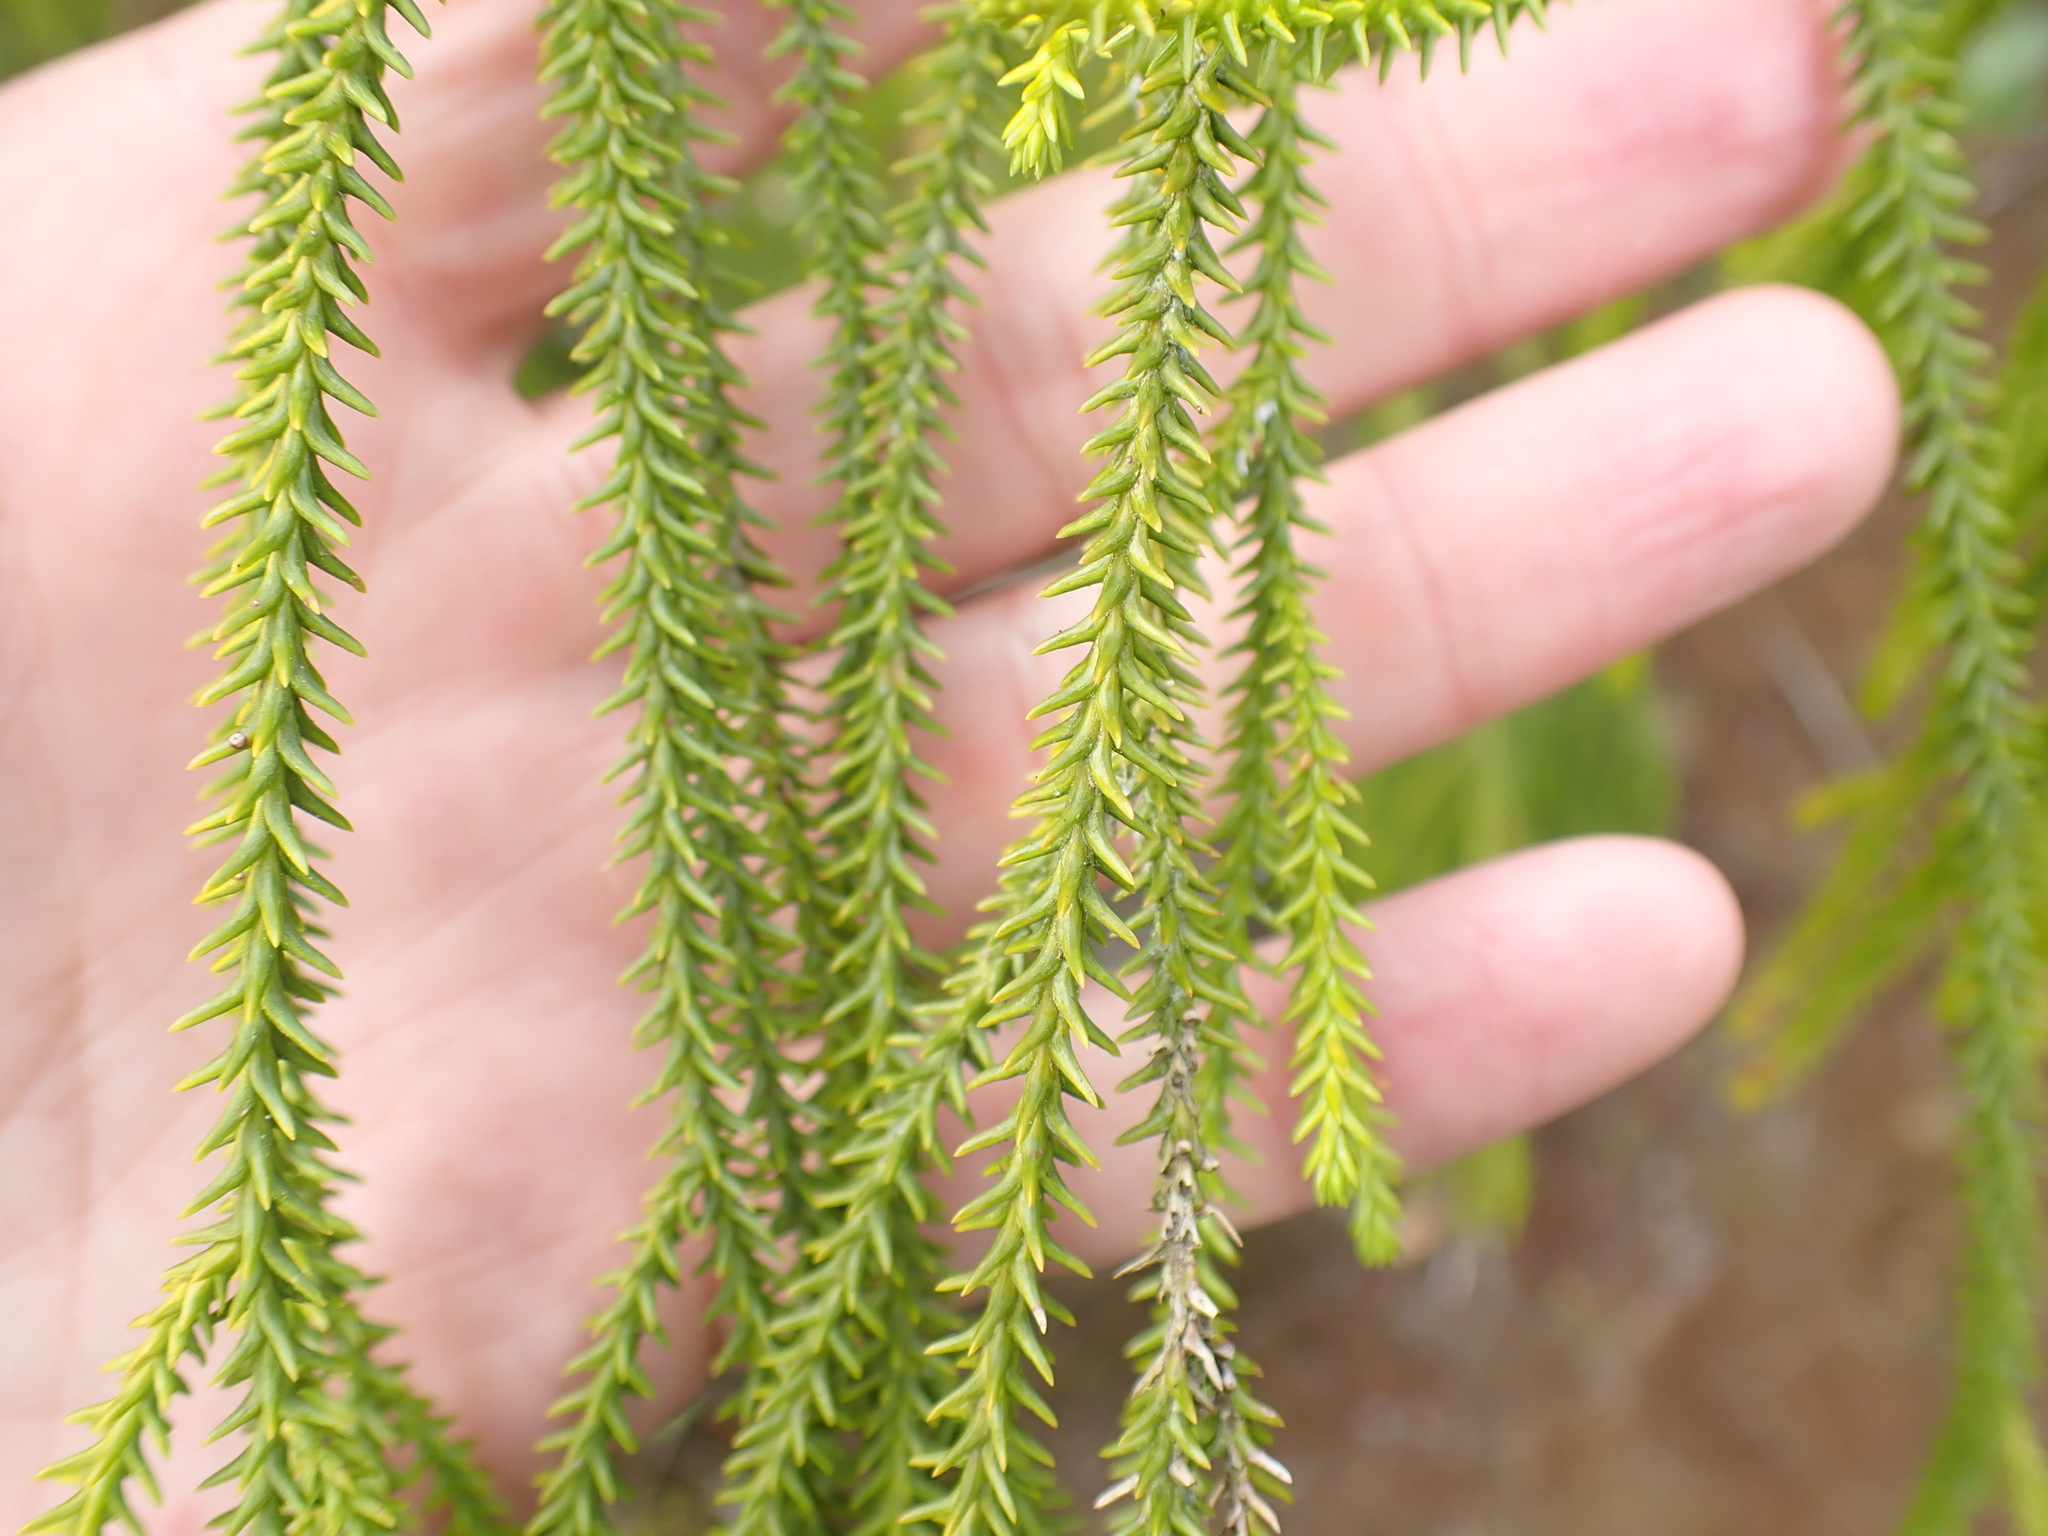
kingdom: Plantae
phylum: Tracheophyta
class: Pinopsida
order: Pinales
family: Podocarpaceae
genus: Dacrydium
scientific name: Dacrydium cupressinum
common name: Red pine
